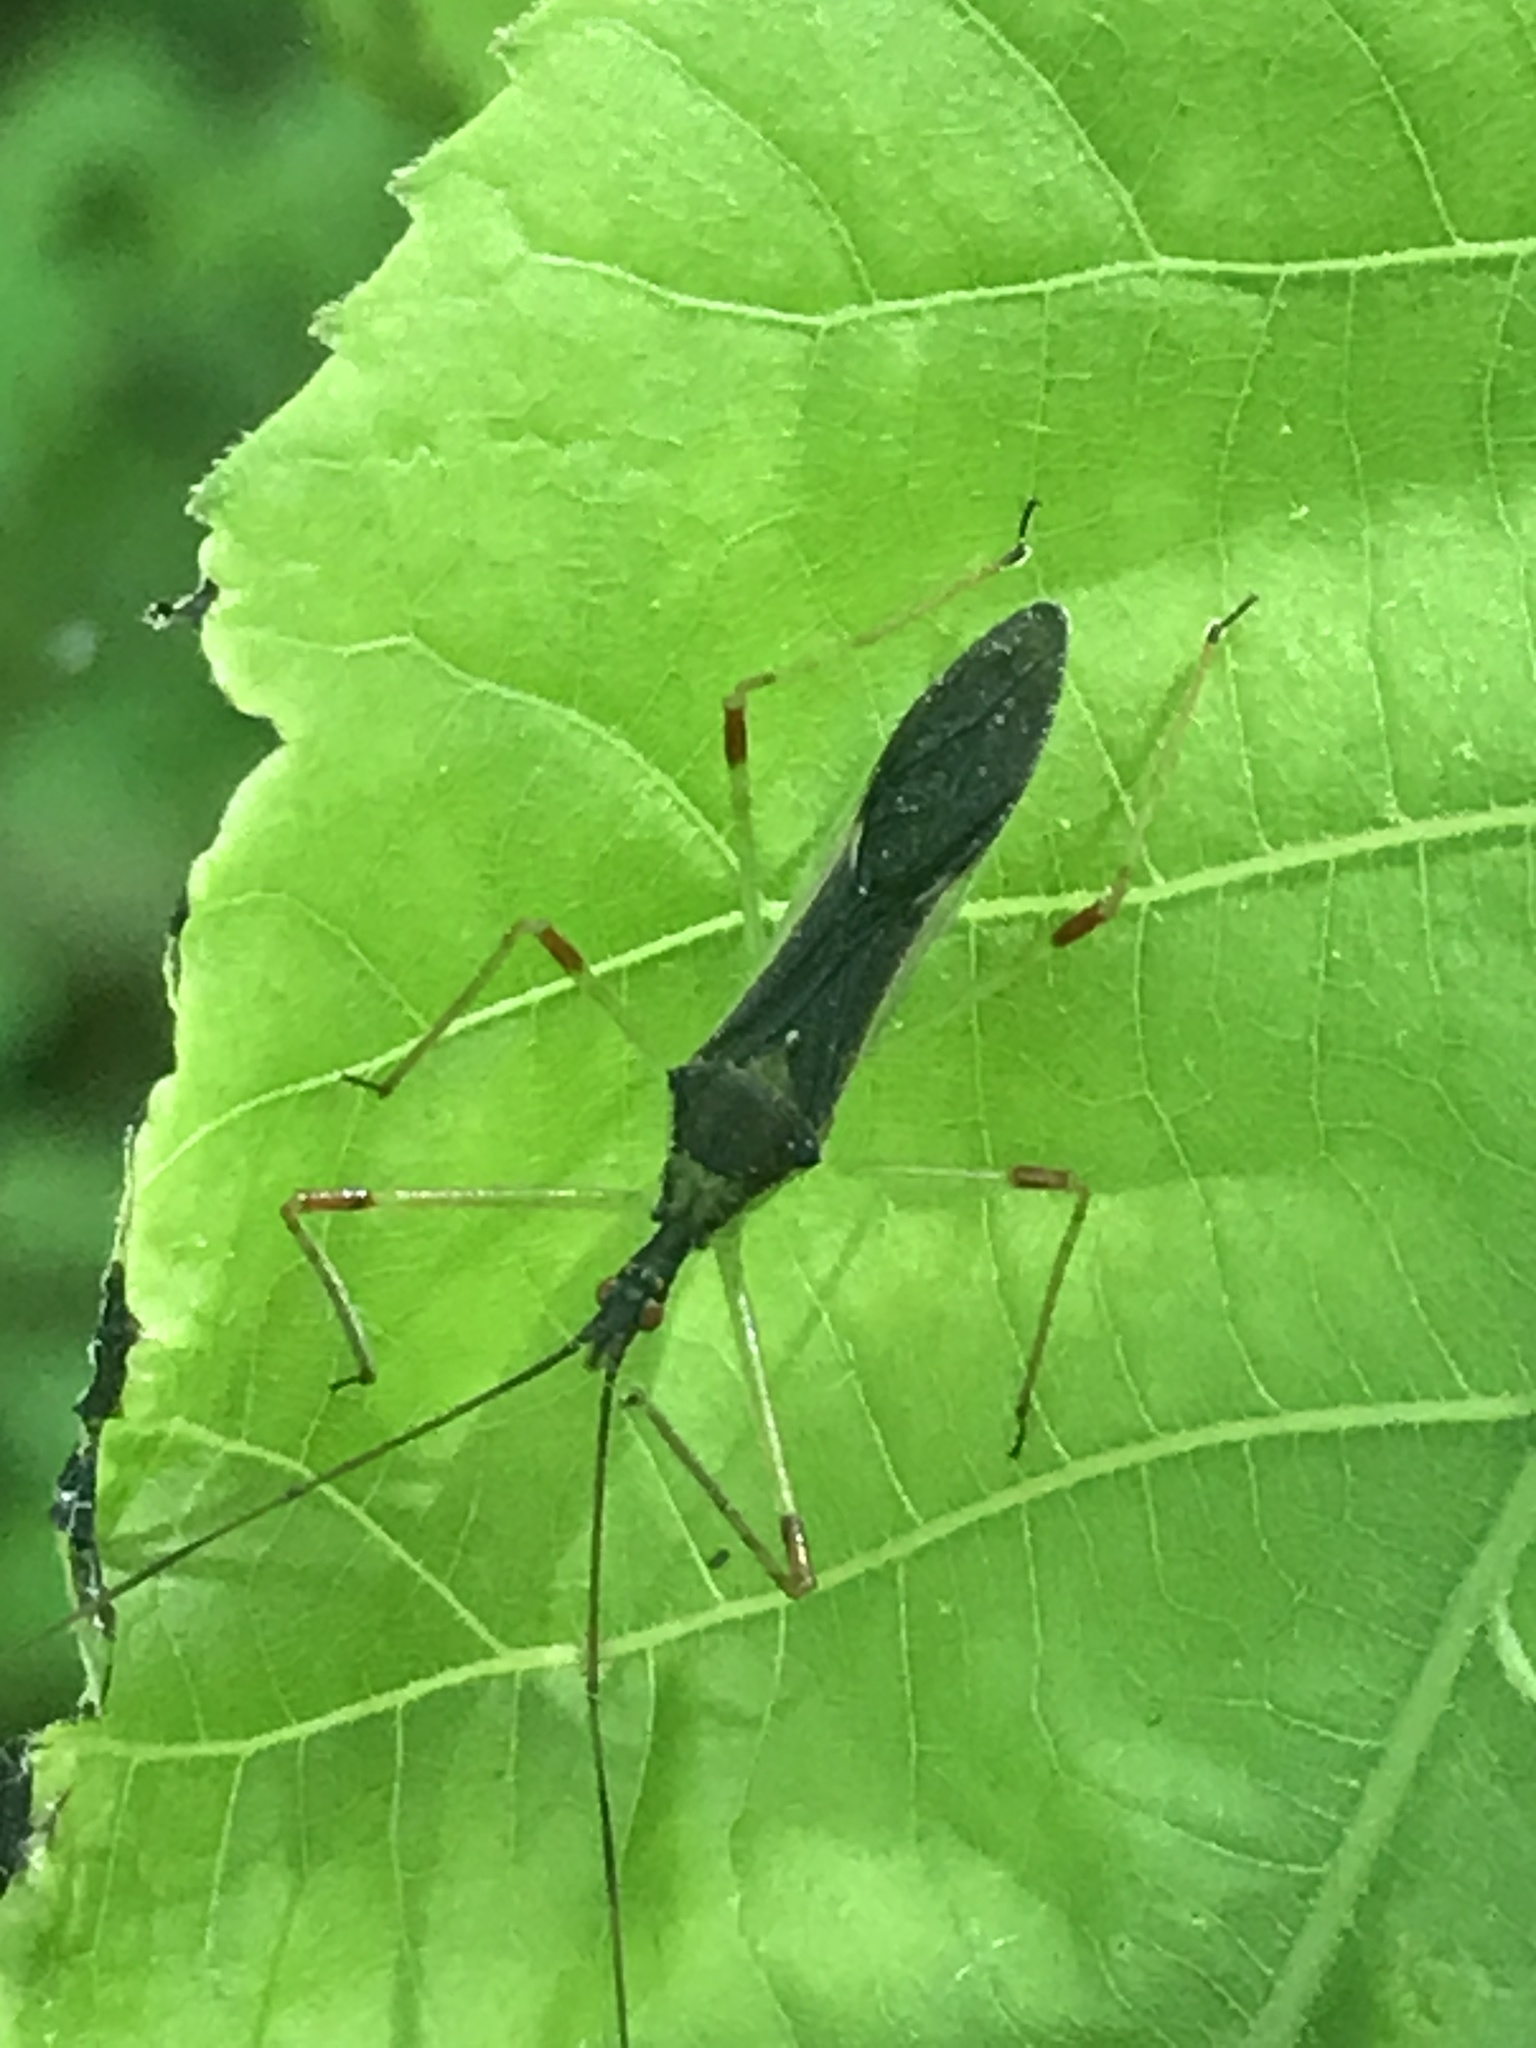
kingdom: Animalia
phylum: Arthropoda
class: Insecta
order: Hemiptera
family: Reduviidae
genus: Zelus
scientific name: Zelus luridus
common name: Pale green assassin bug
